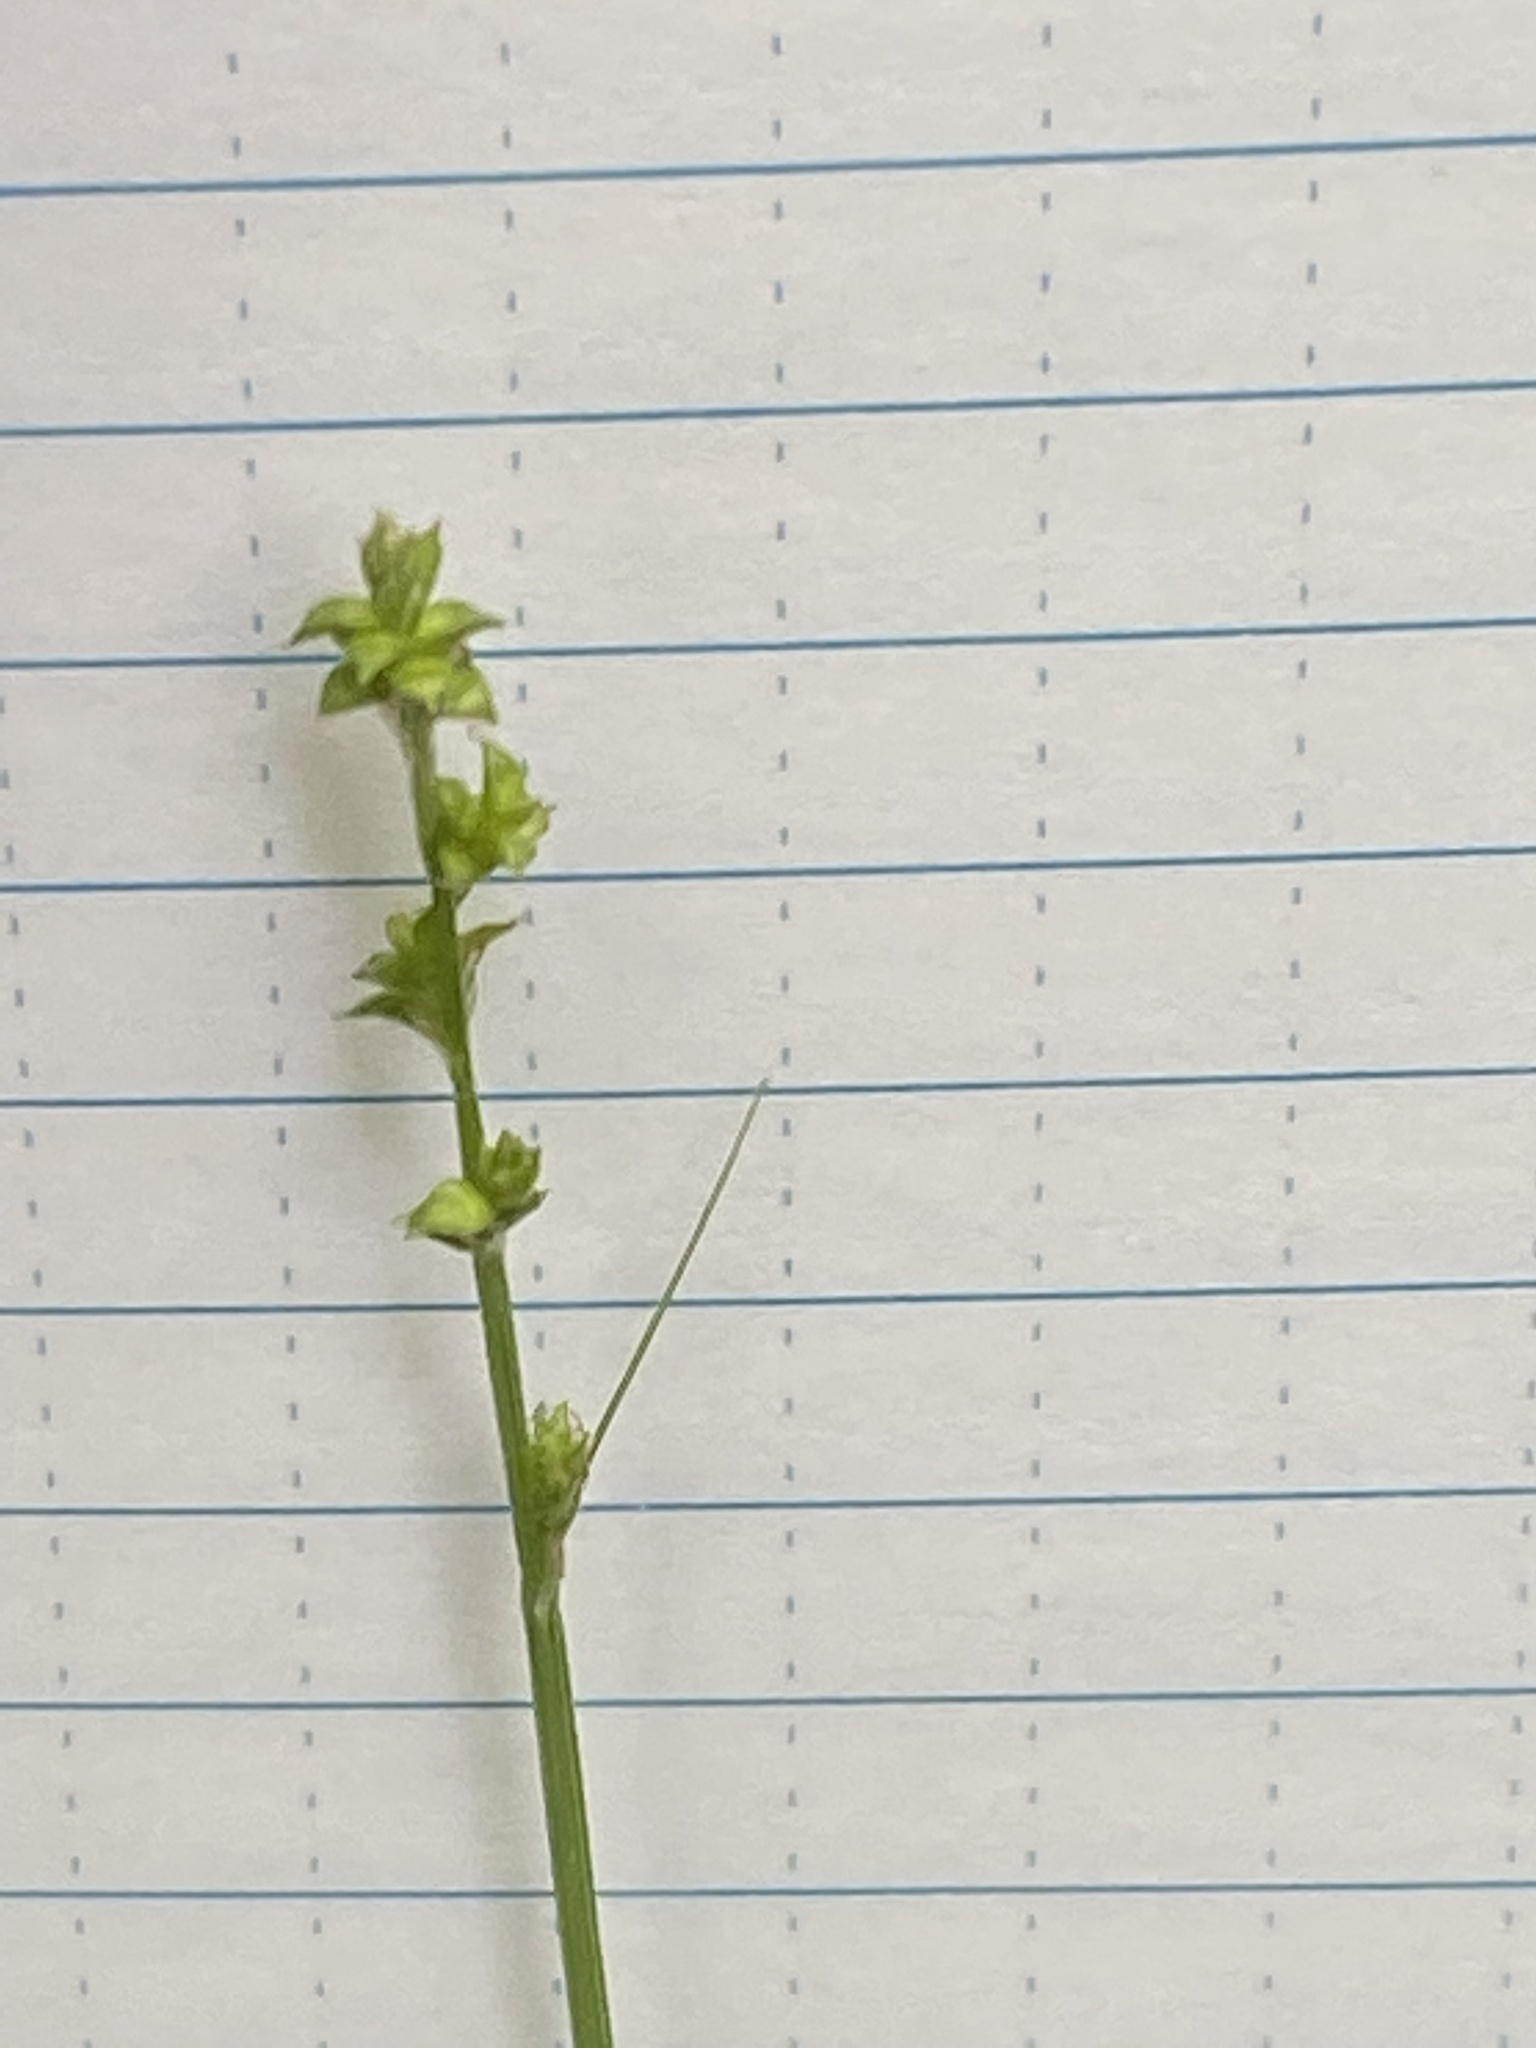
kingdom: Plantae
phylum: Tracheophyta
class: Liliopsida
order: Poales
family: Cyperaceae
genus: Carex
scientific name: Carex disperma
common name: Short-leaved sedge
